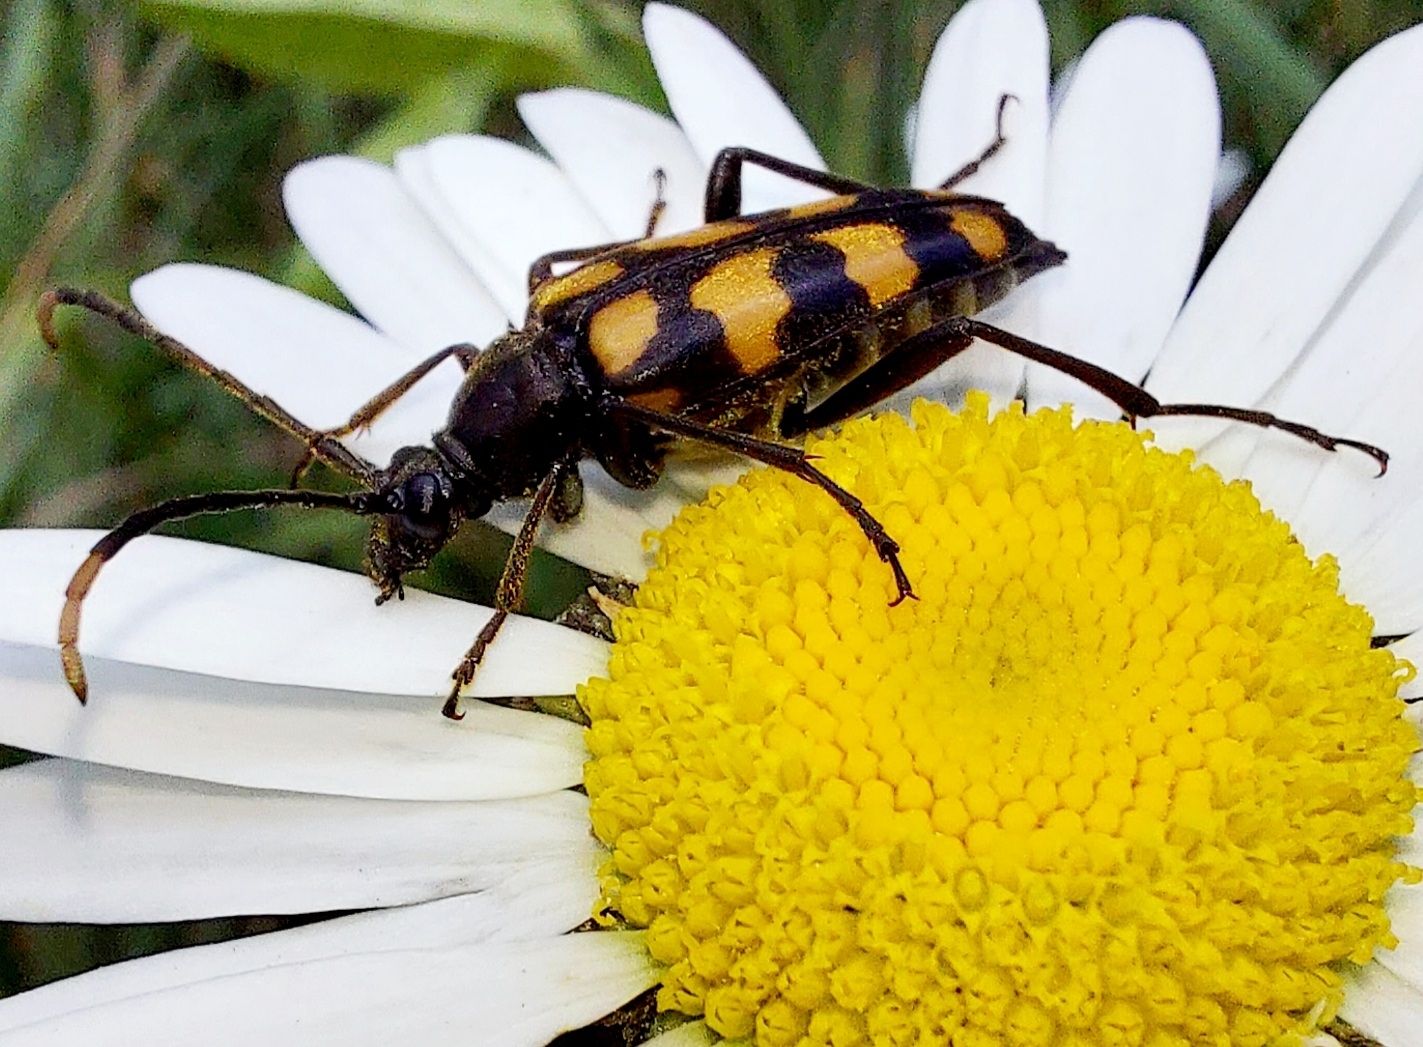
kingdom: Animalia
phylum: Arthropoda
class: Insecta
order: Coleoptera
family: Cerambycidae
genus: Leptura
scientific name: Leptura quadrifasciata
